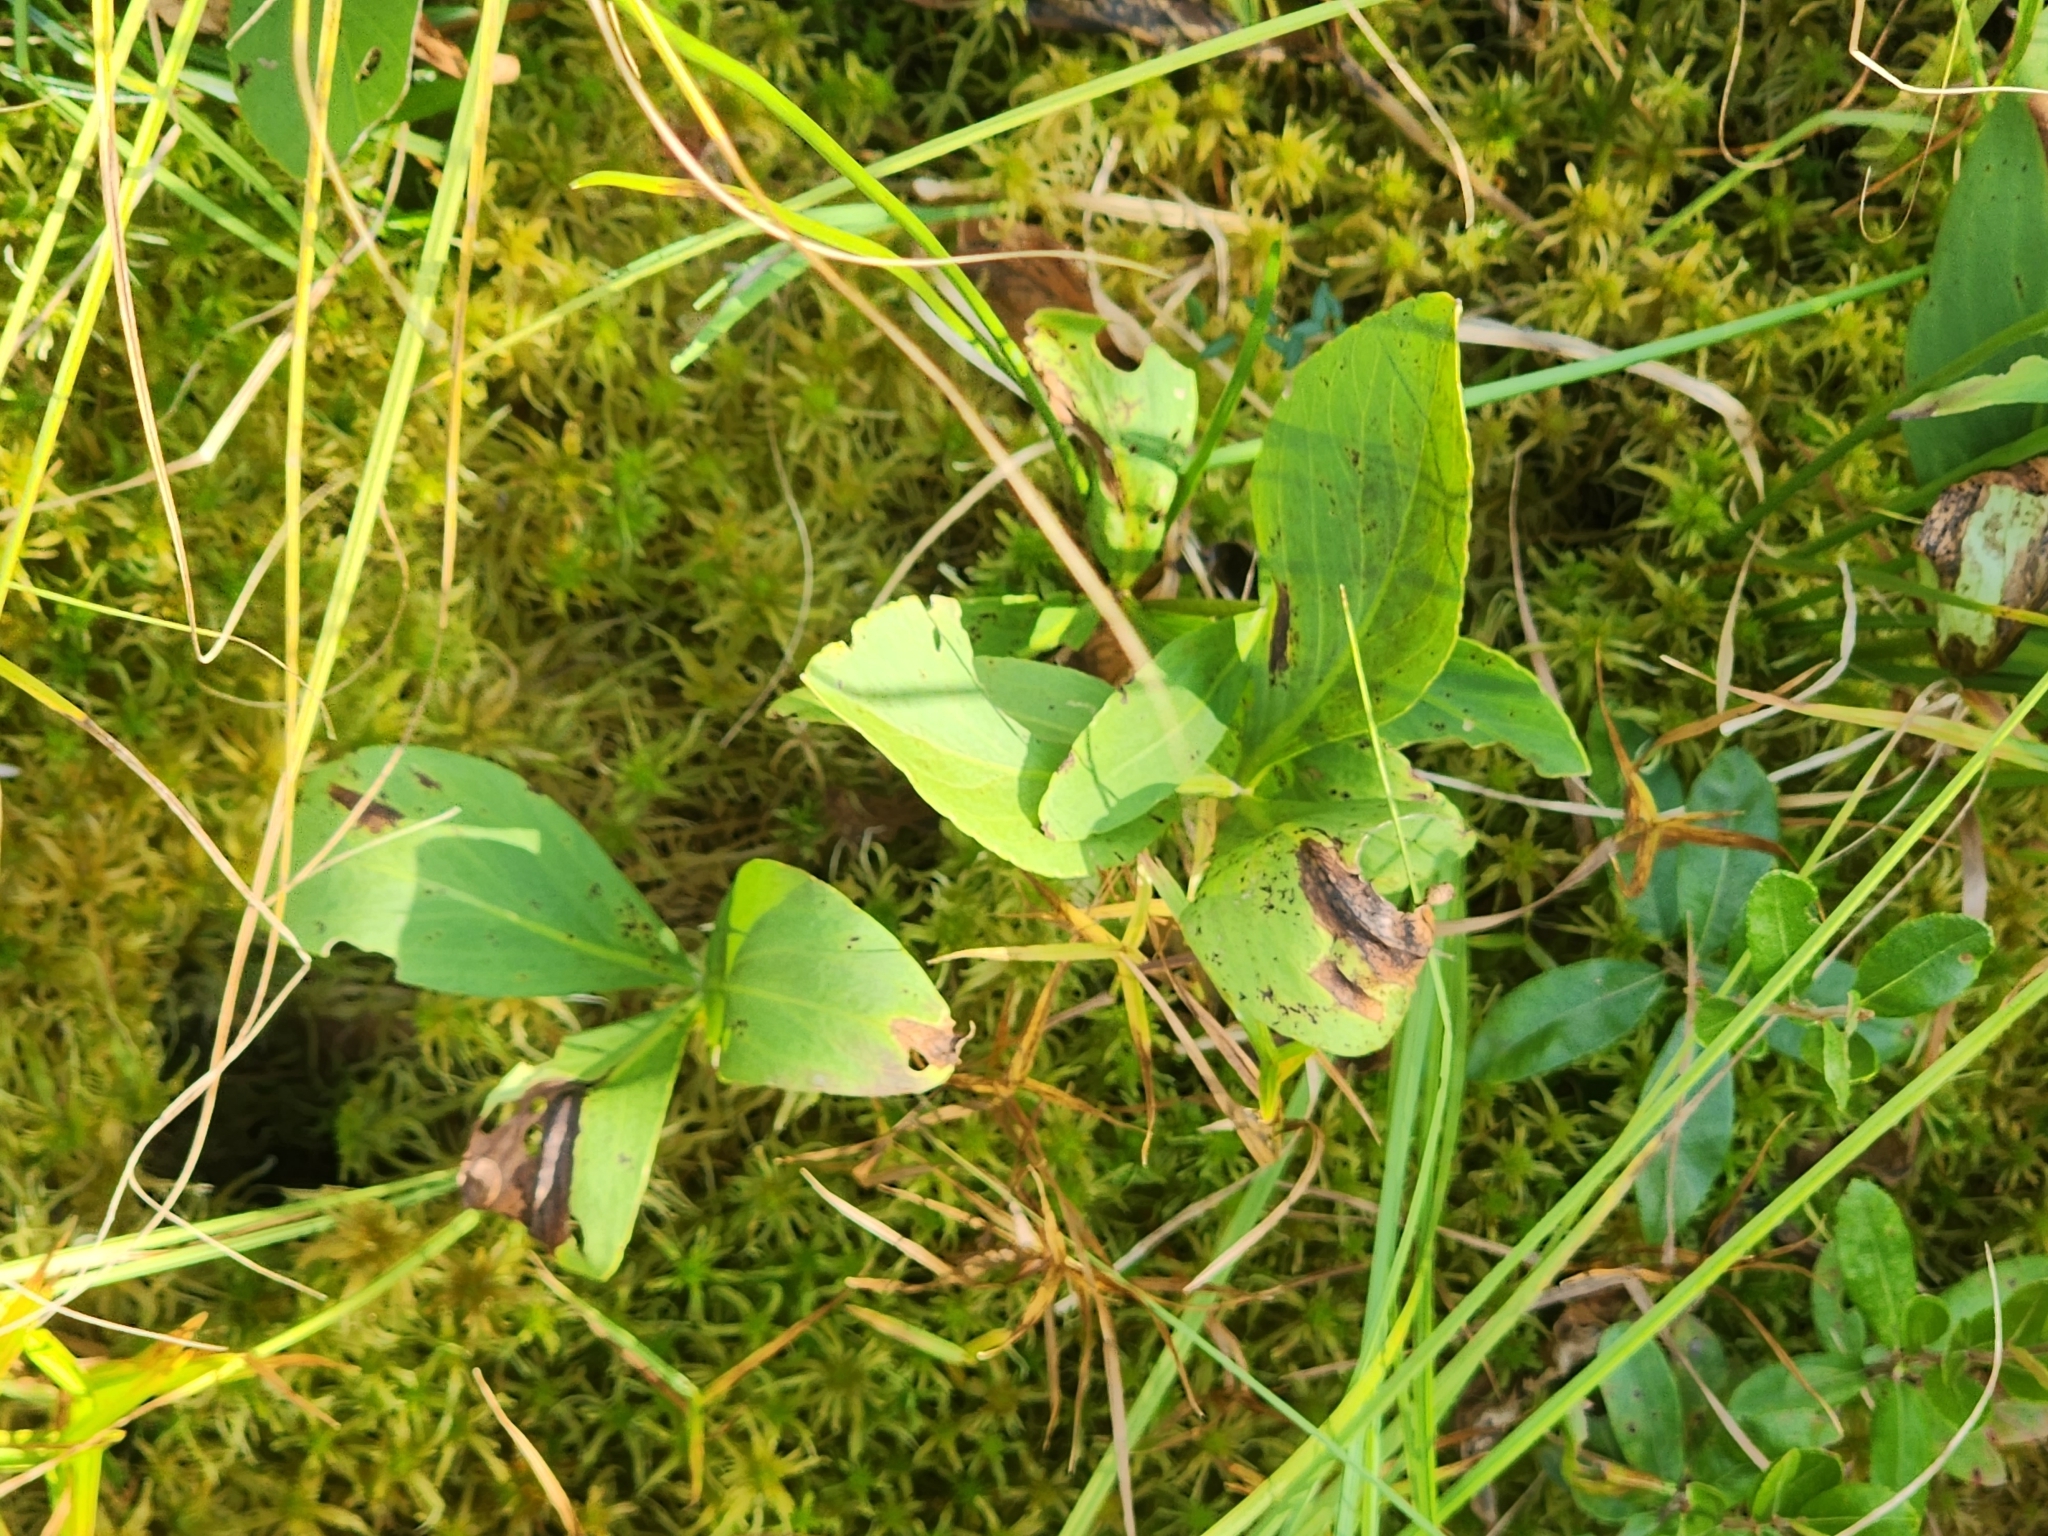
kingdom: Plantae
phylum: Tracheophyta
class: Magnoliopsida
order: Asterales
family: Menyanthaceae
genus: Menyanthes
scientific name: Menyanthes trifoliata
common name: Bogbean
